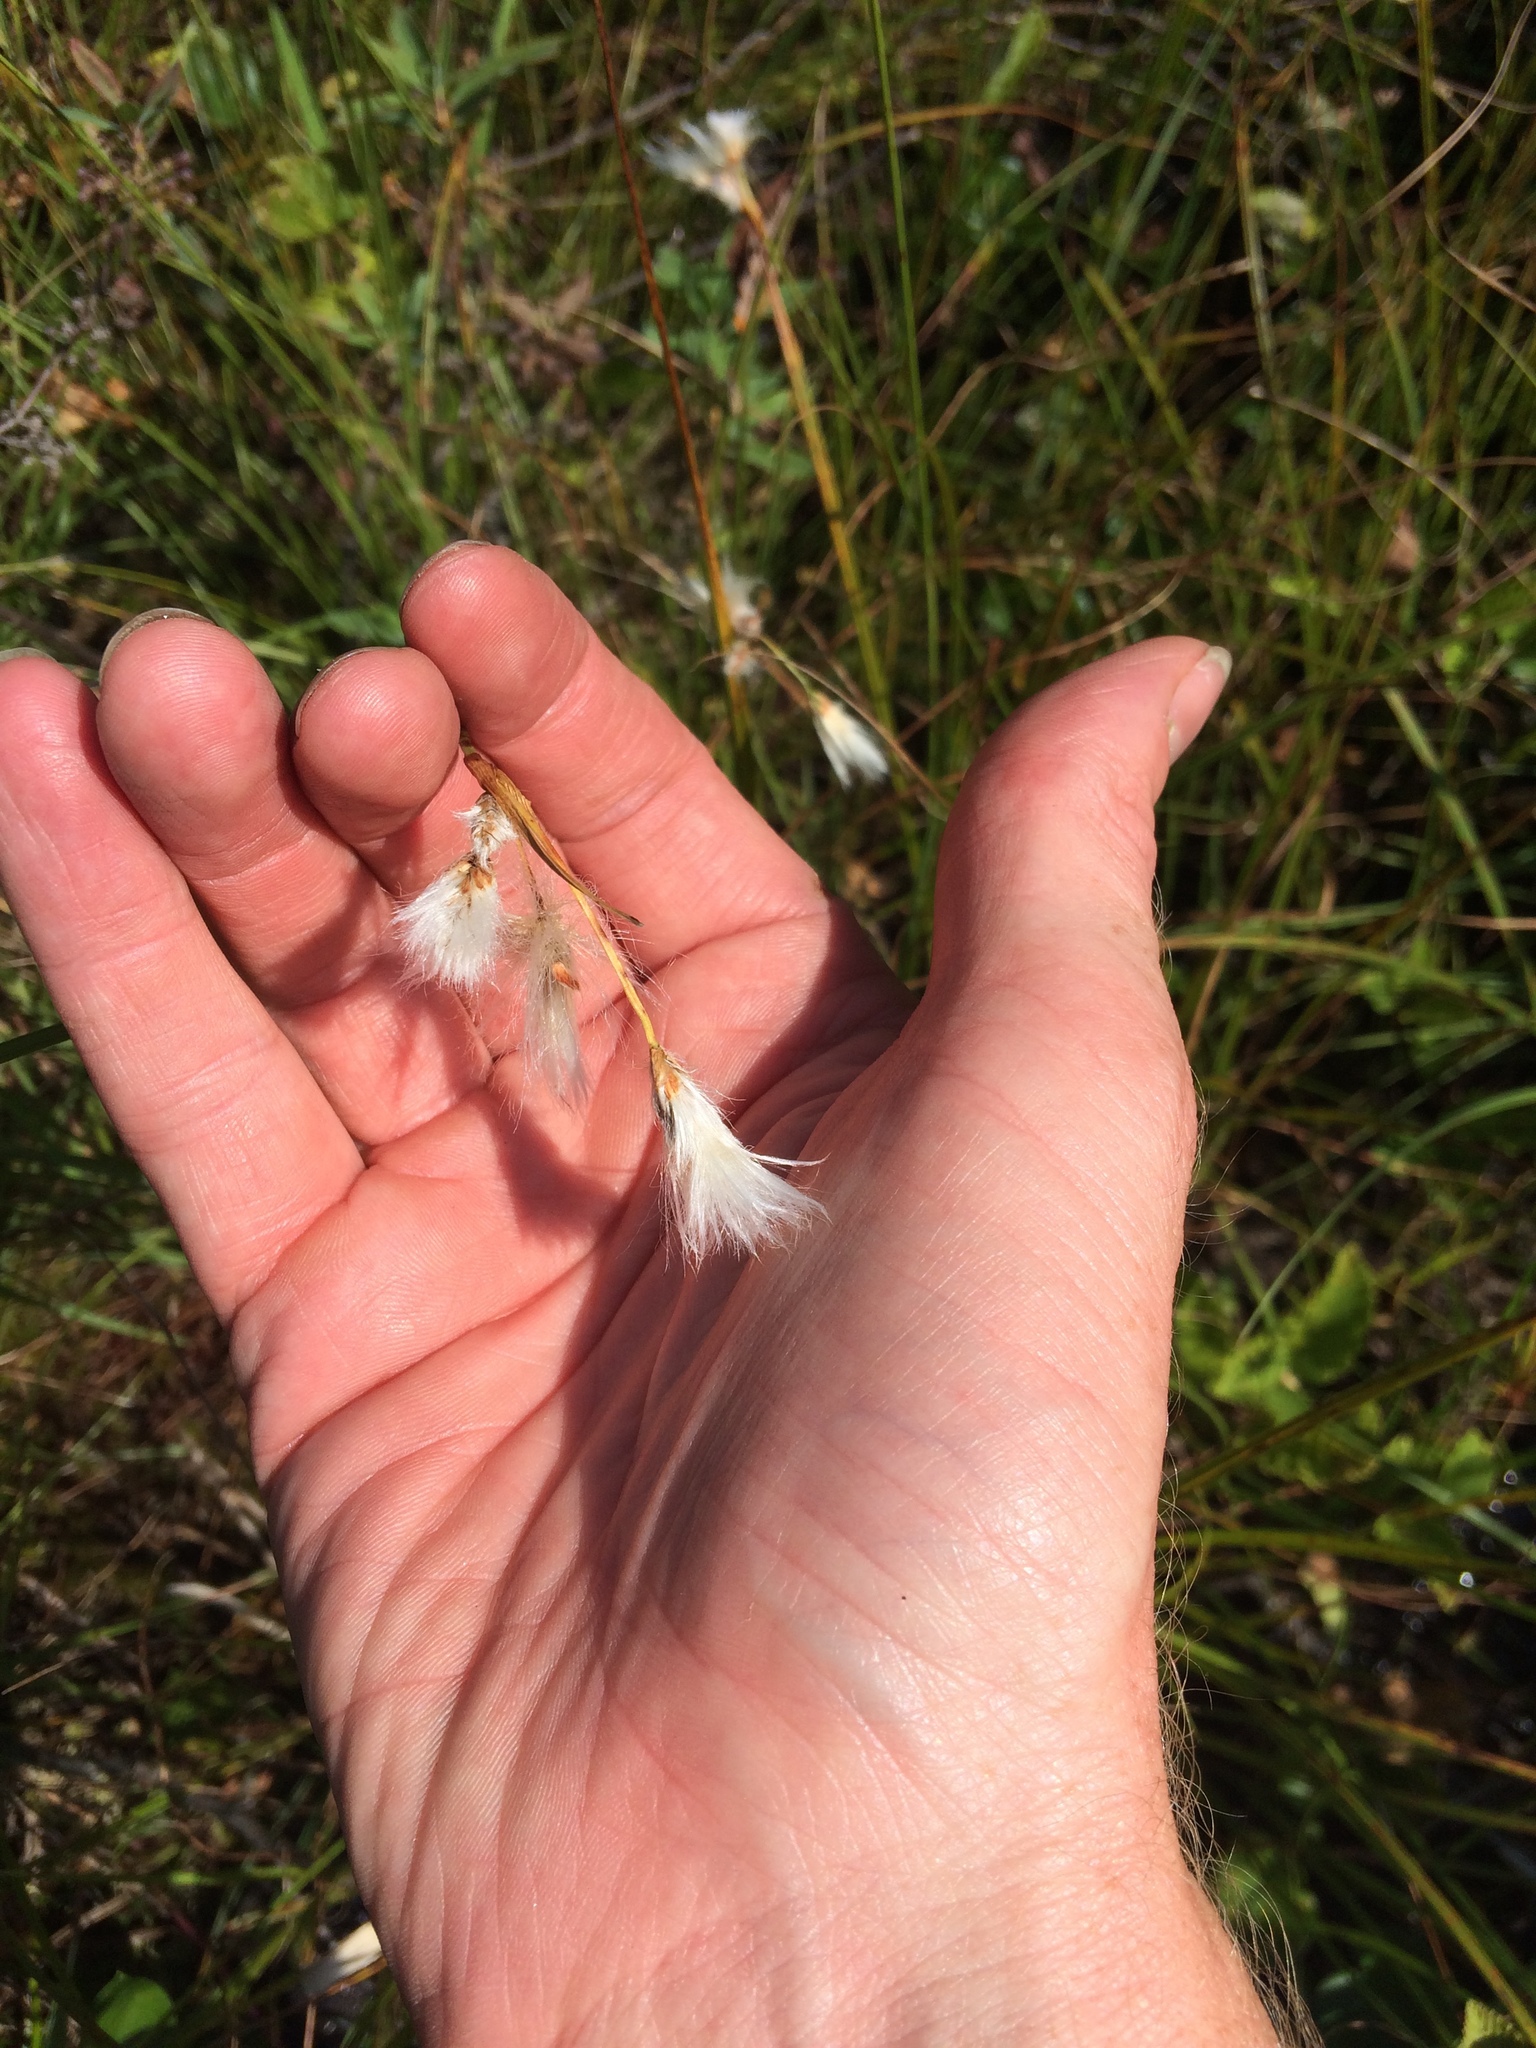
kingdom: Plantae
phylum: Tracheophyta
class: Liliopsida
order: Poales
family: Cyperaceae
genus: Eriophorum
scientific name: Eriophorum vaginatum
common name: Hare's-tail cottongrass
